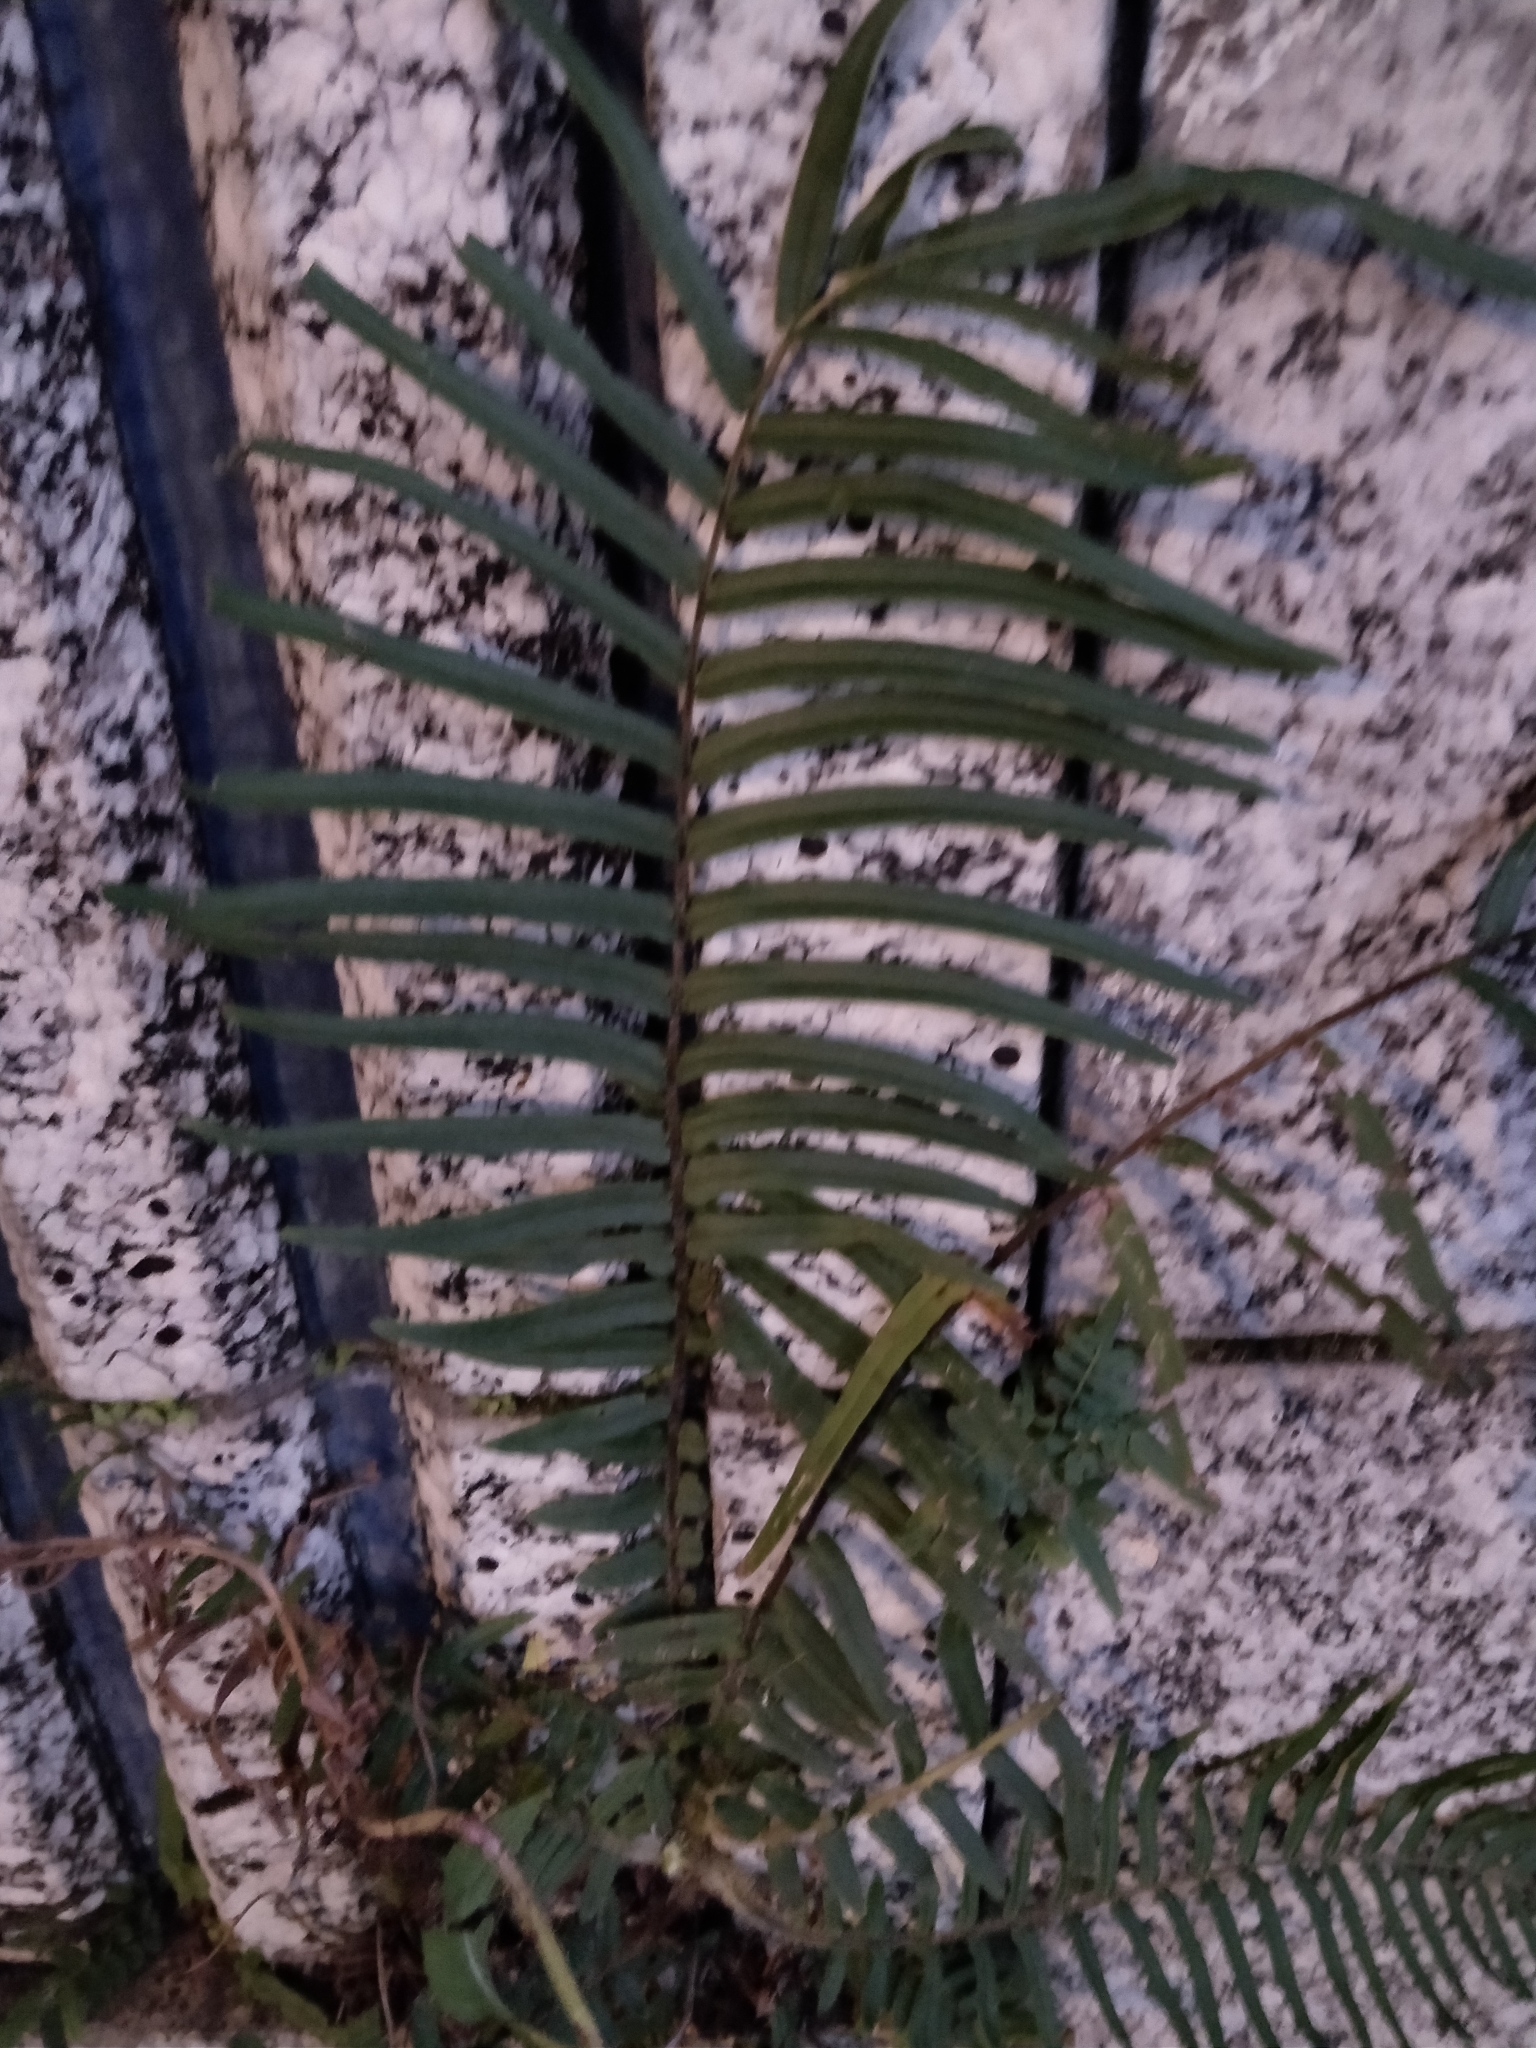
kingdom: Plantae
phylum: Tracheophyta
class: Polypodiopsida
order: Polypodiales
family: Pteridaceae
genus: Pteris
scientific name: Pteris vittata
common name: Ladder brake
